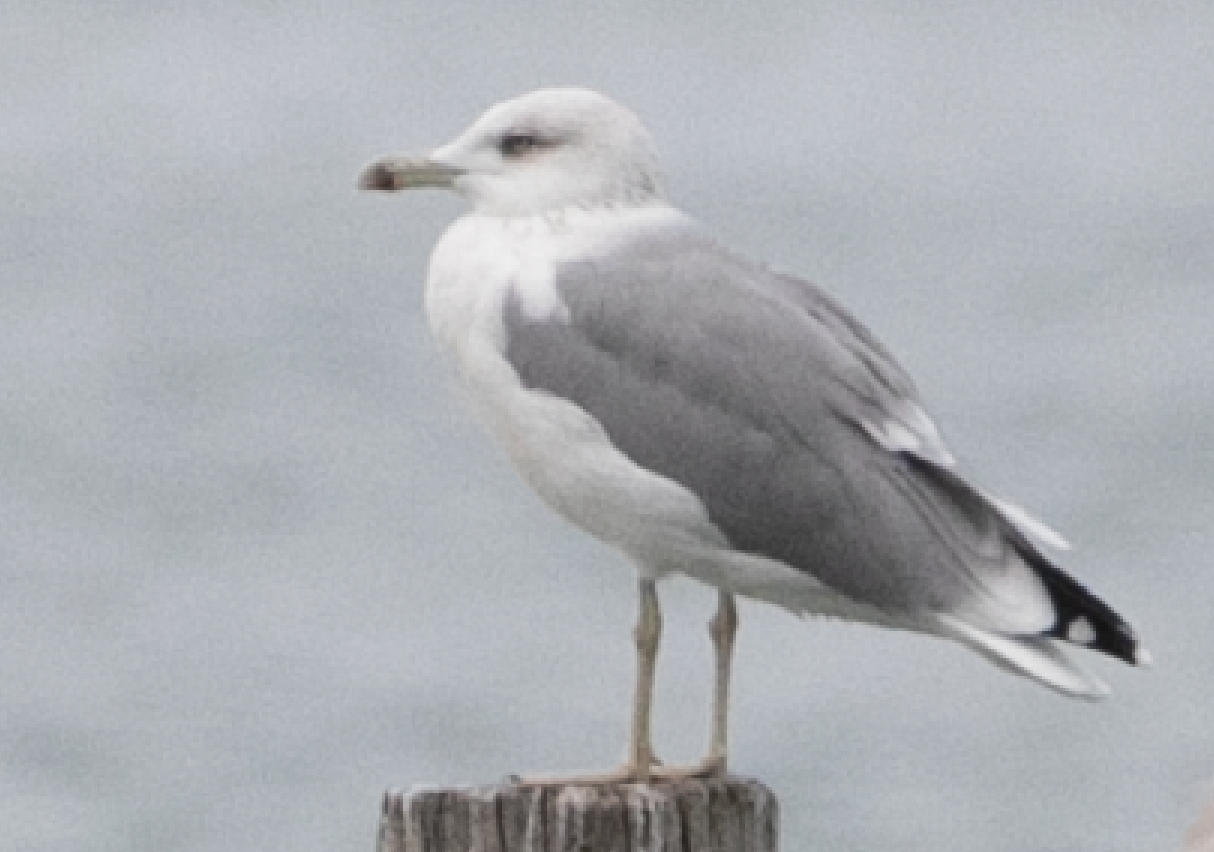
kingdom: Animalia
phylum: Chordata
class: Aves
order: Charadriiformes
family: Laridae
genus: Larus
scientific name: Larus michahellis
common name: Yellow-legged gull
